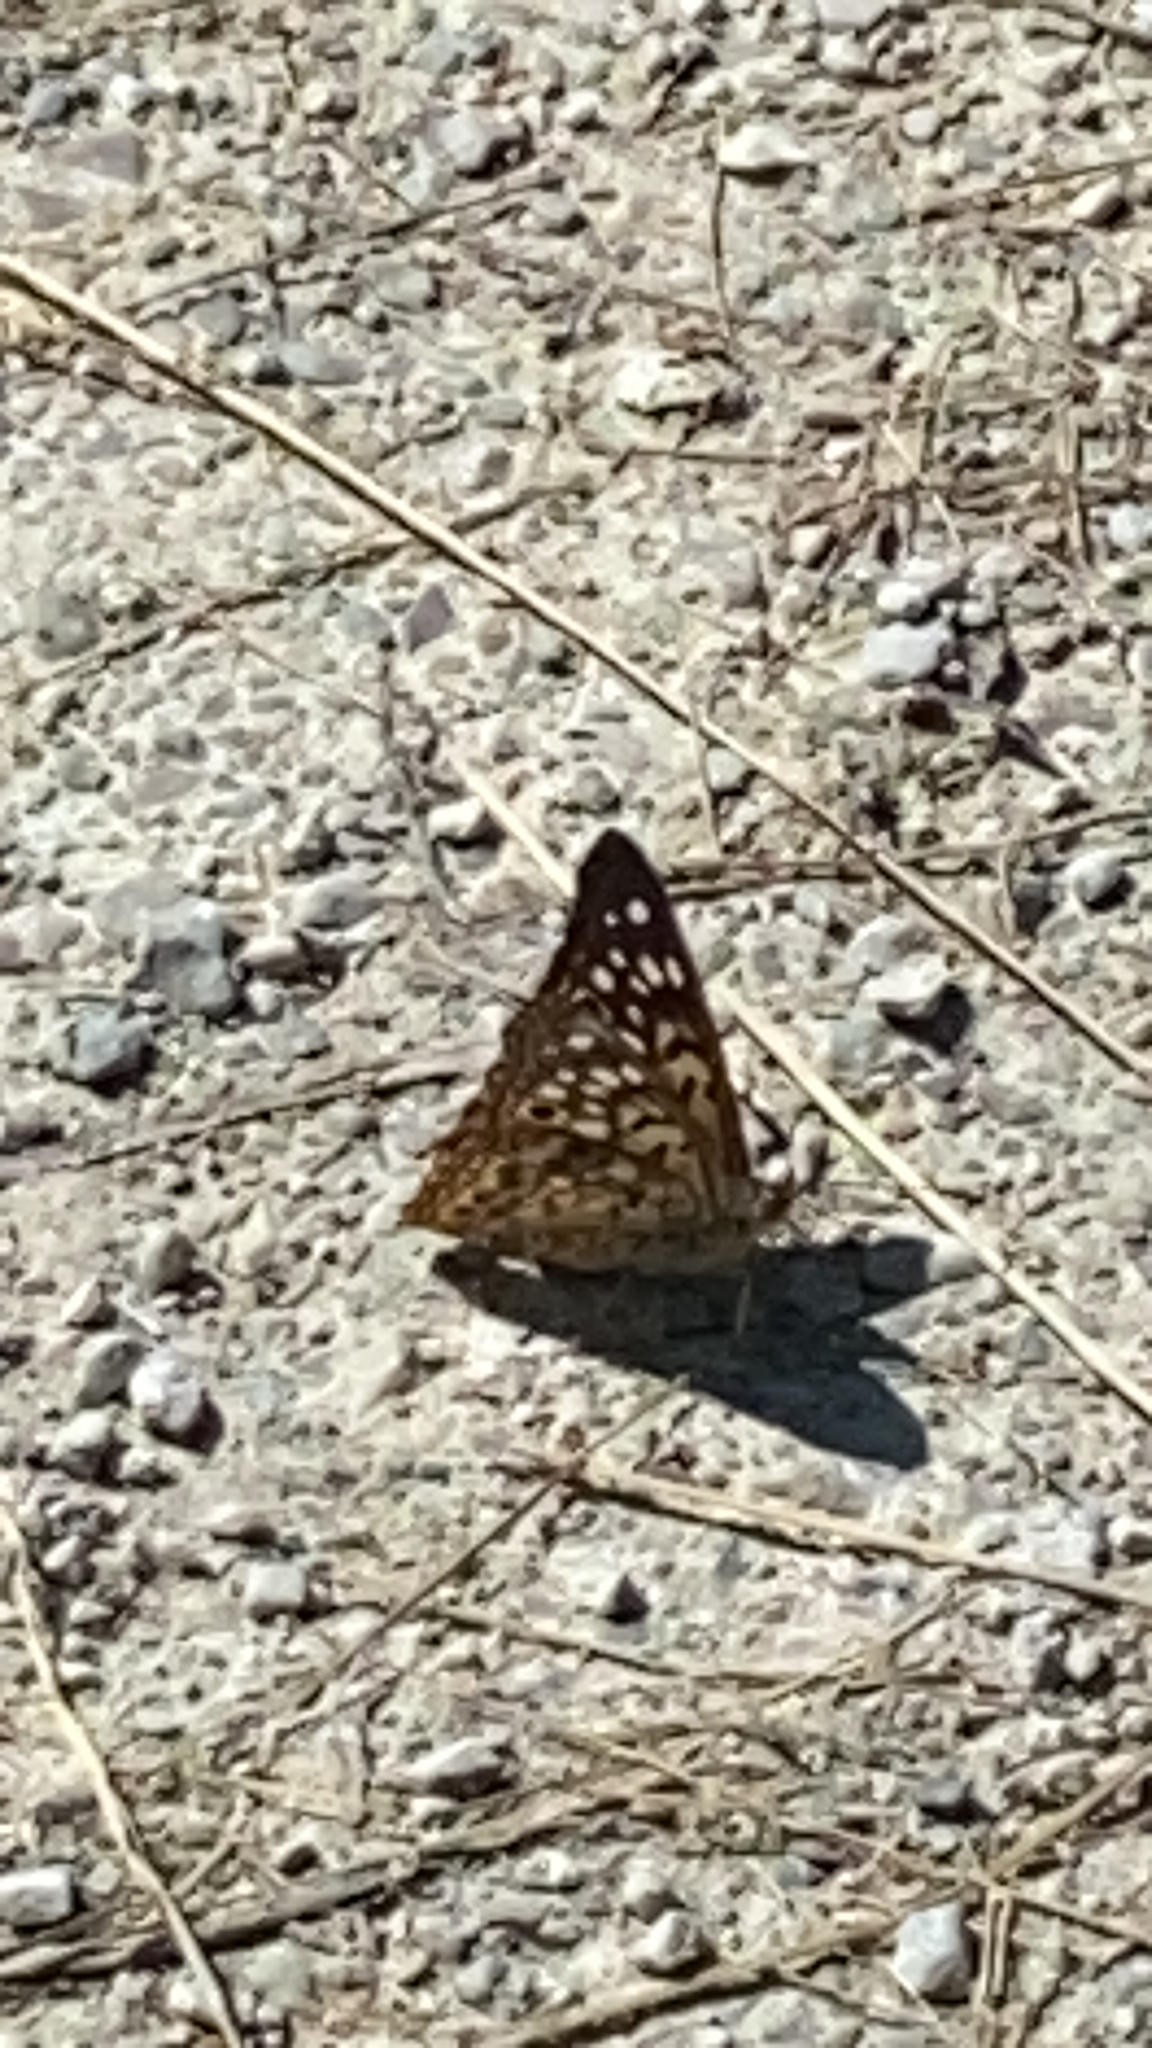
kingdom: Animalia
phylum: Arthropoda
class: Insecta
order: Lepidoptera
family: Nymphalidae
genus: Asterocampa
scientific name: Asterocampa celtis
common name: Hackberry emperor
